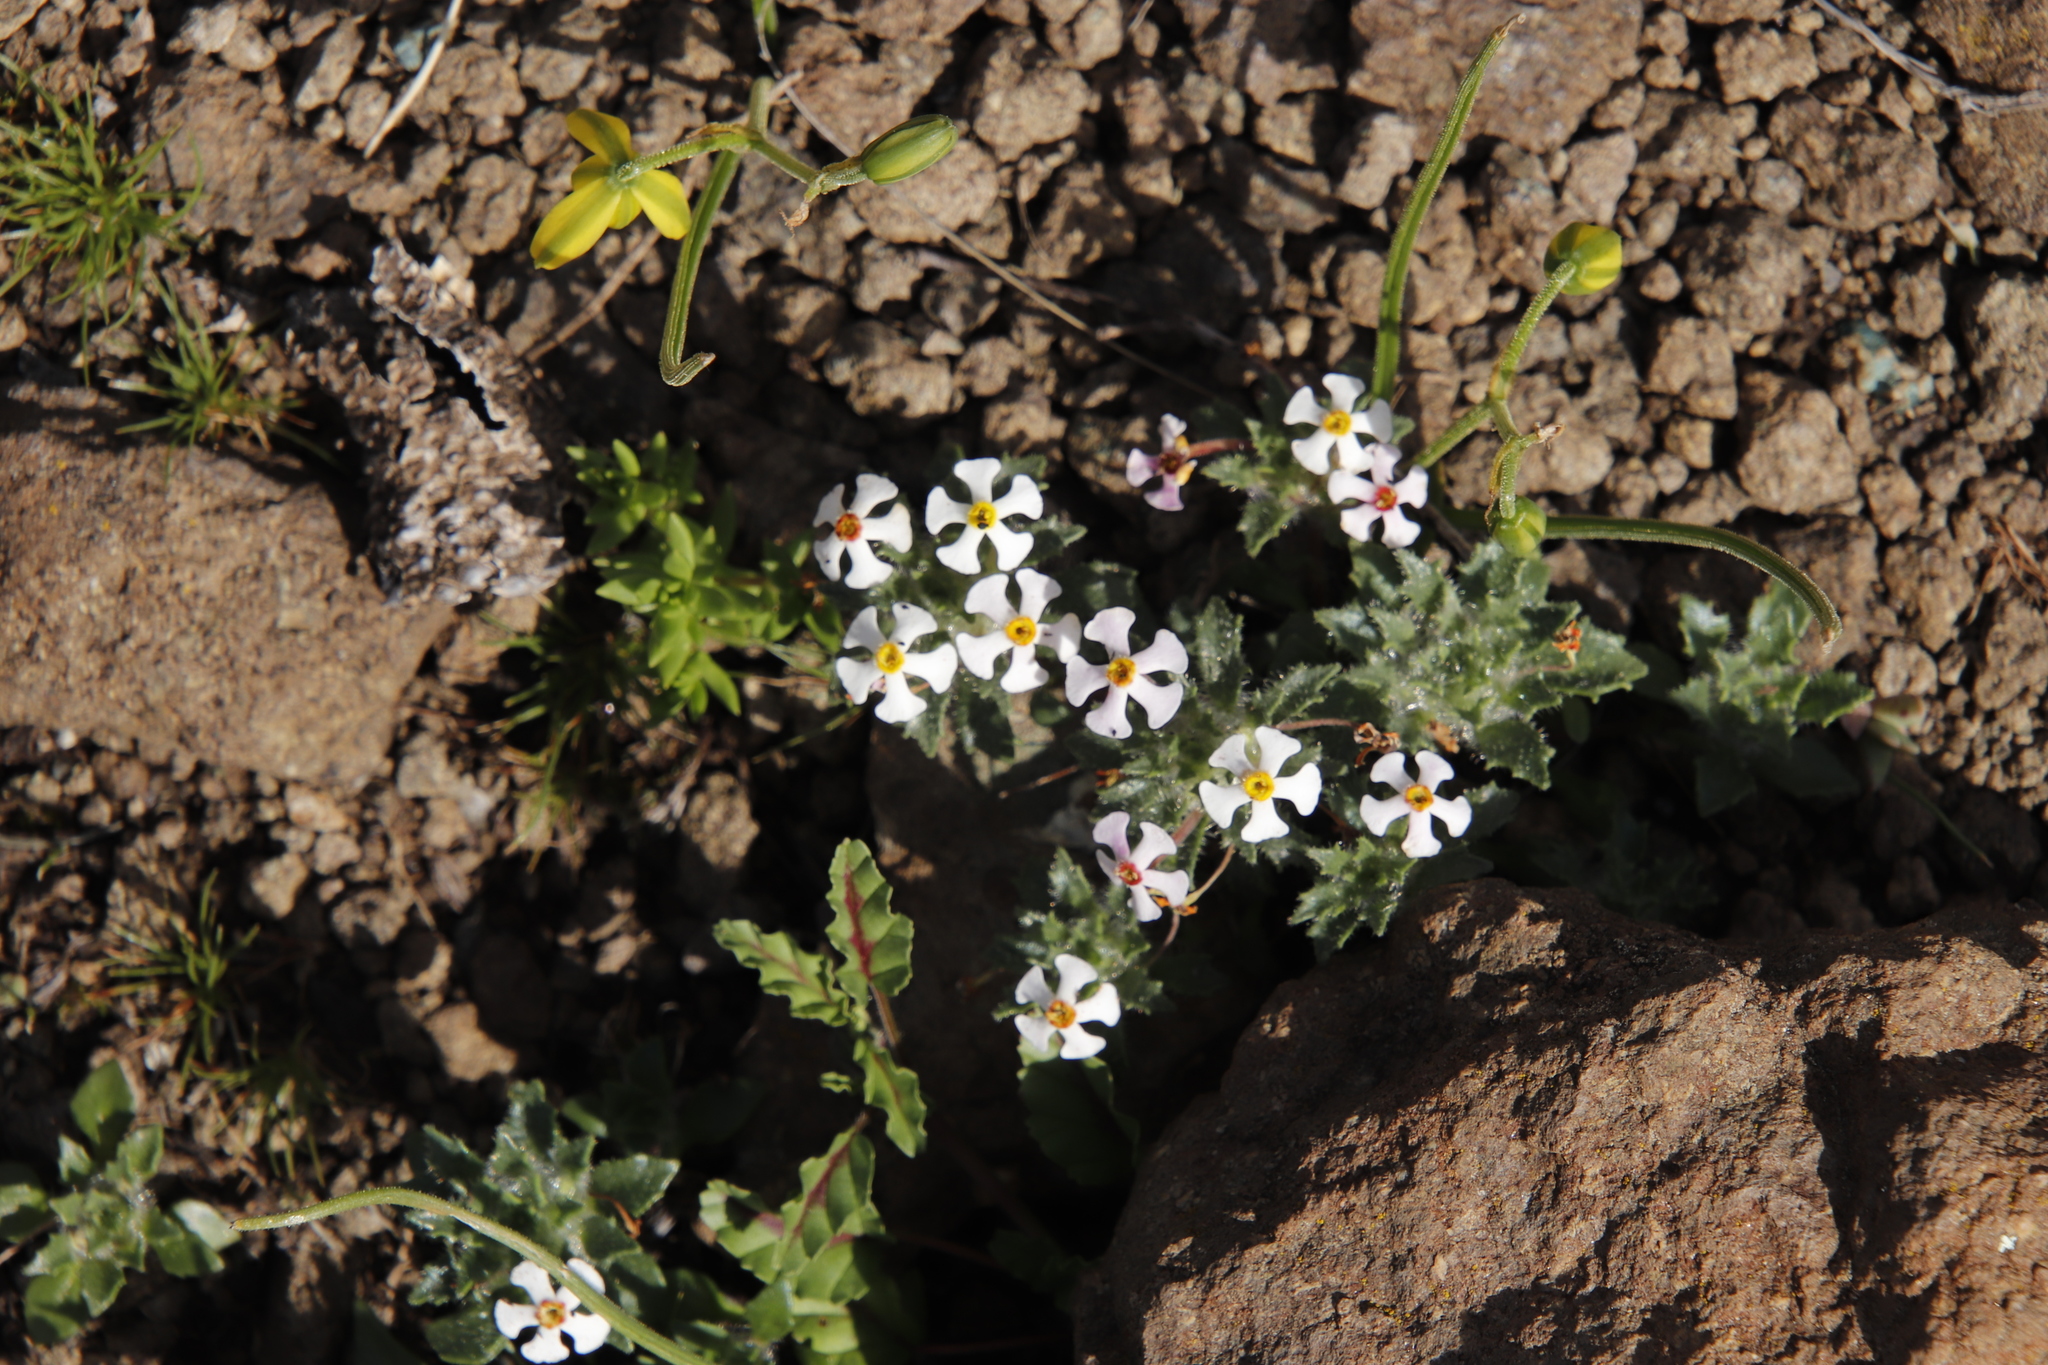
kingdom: Plantae
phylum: Tracheophyta
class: Magnoliopsida
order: Lamiales
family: Scrophulariaceae
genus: Zaluzianskya
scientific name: Zaluzianskya crocea
